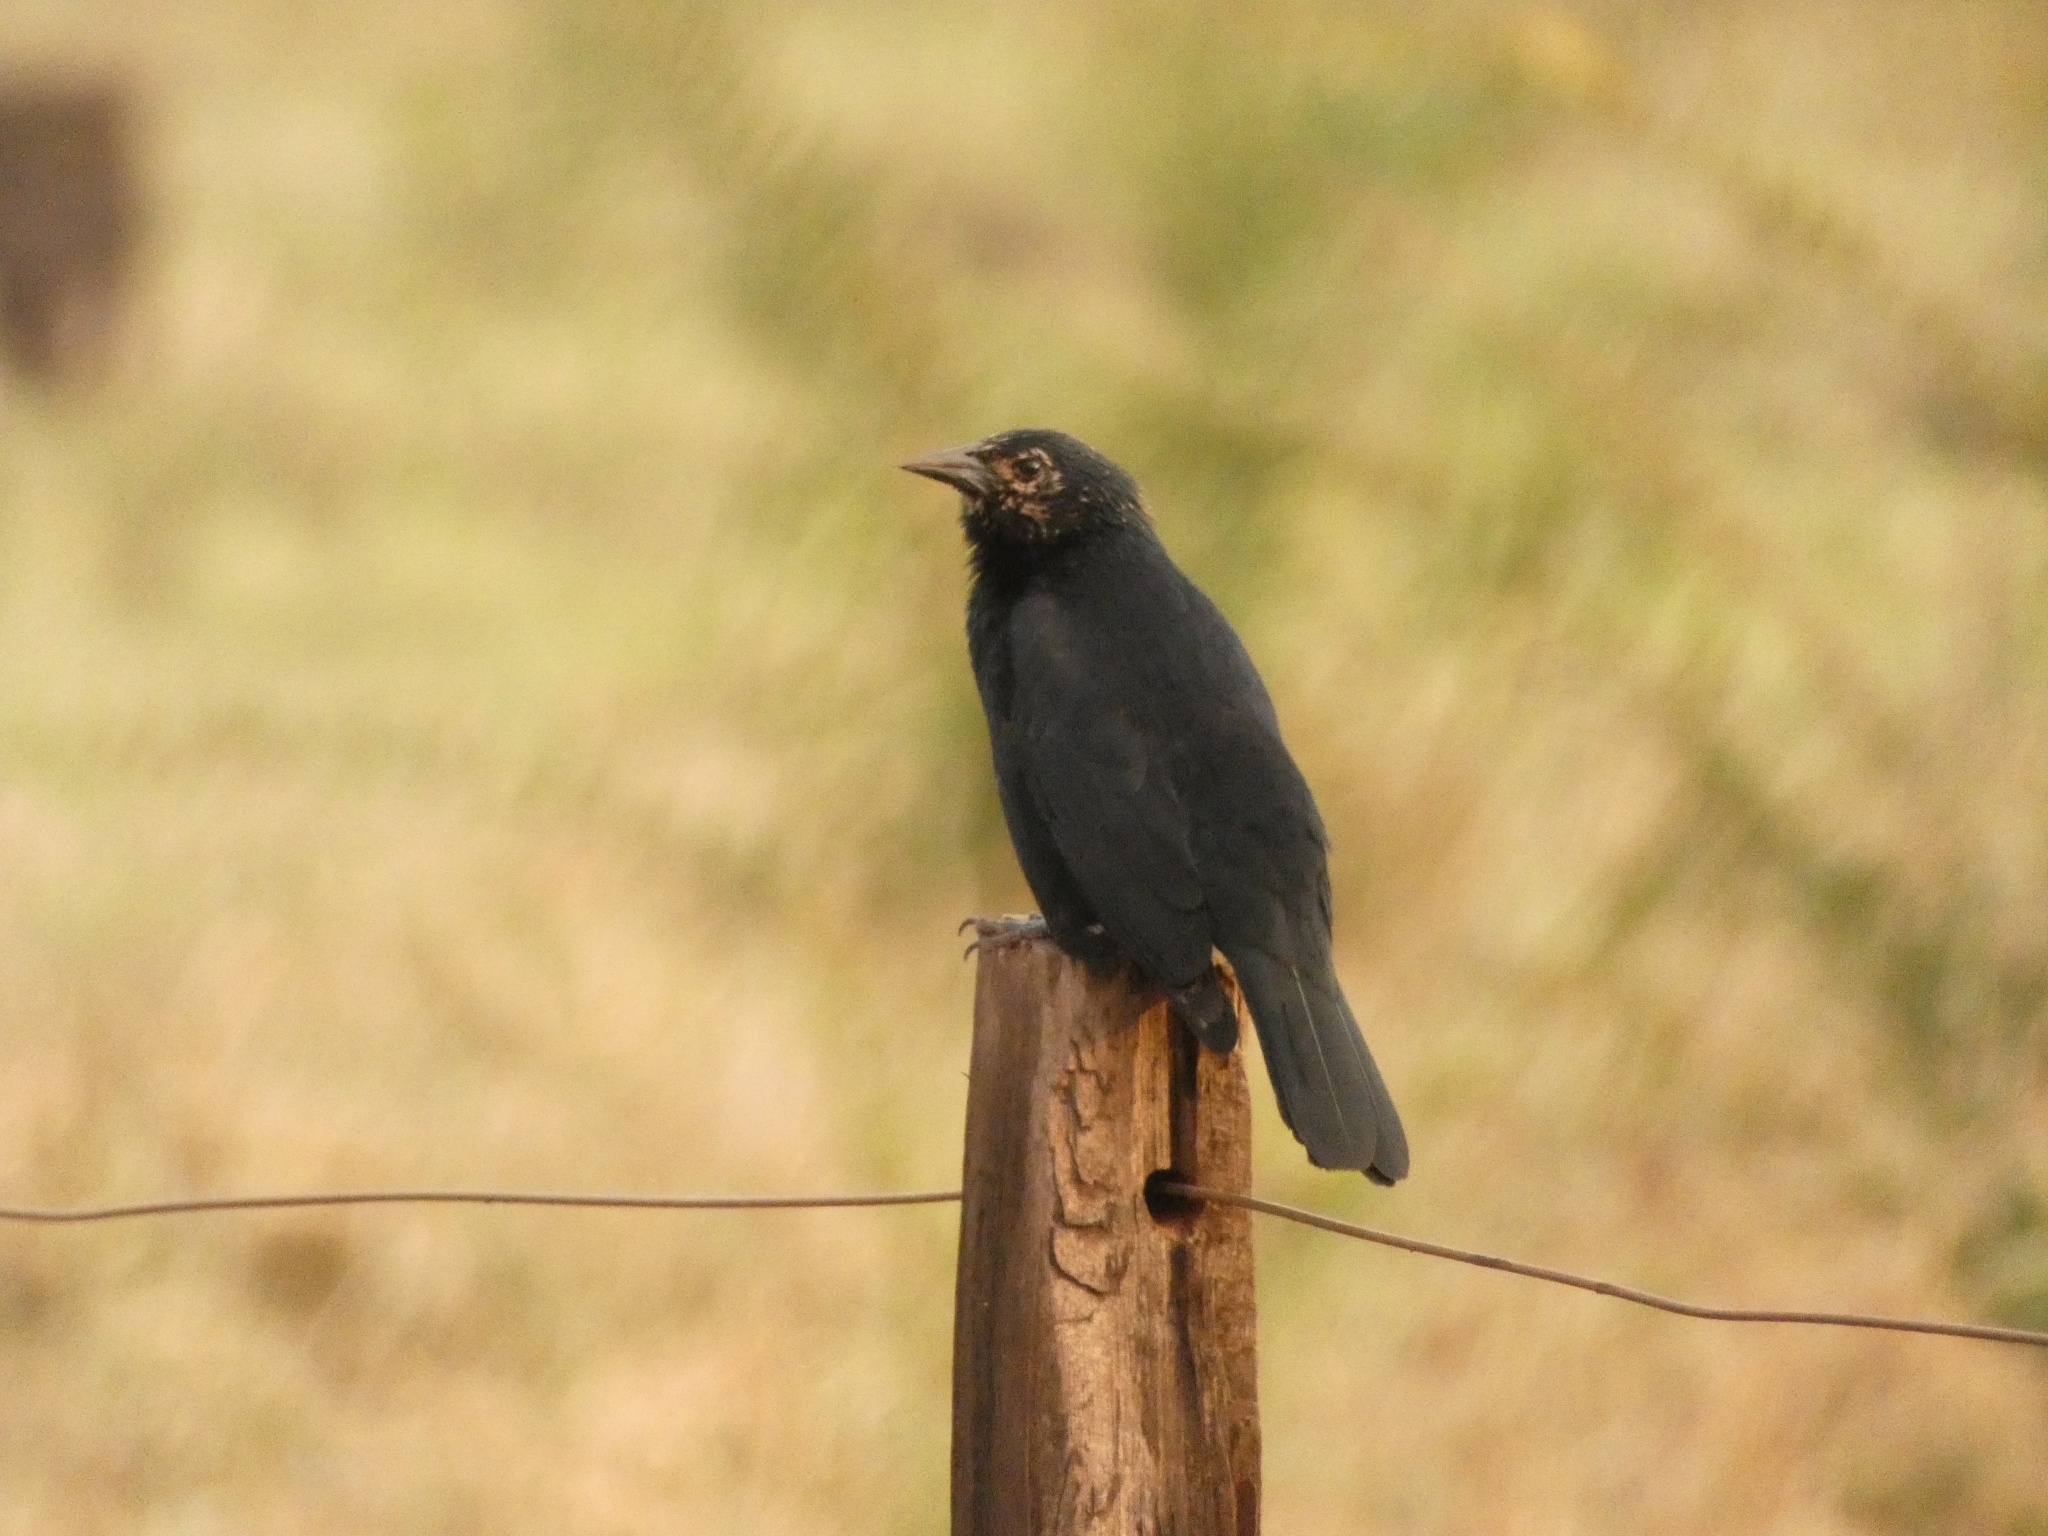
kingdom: Animalia
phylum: Chordata
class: Aves
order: Passeriformes
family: Icteridae
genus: Gnorimopsar
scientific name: Gnorimopsar chopi
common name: Chopi blackbird
